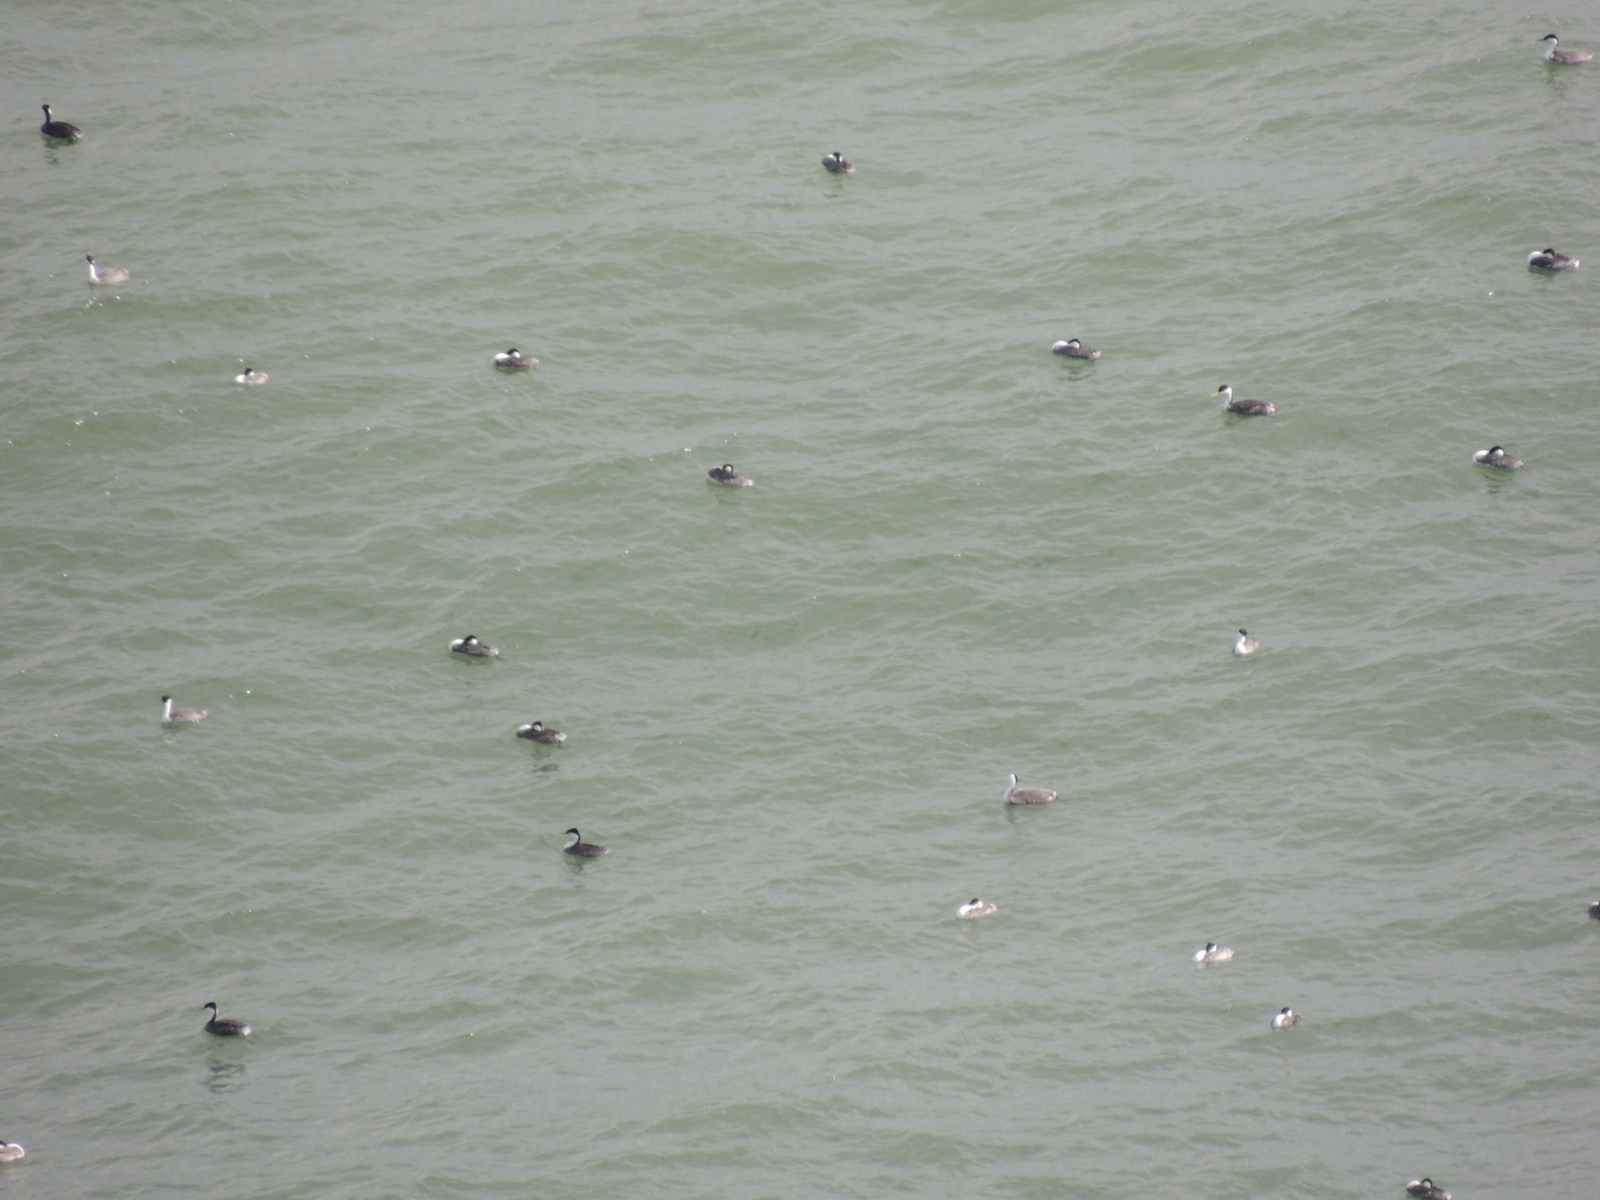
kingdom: Animalia
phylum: Chordata
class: Aves
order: Podicipediformes
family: Podicipedidae
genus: Aechmophorus
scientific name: Aechmophorus occidentalis
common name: Western grebe
